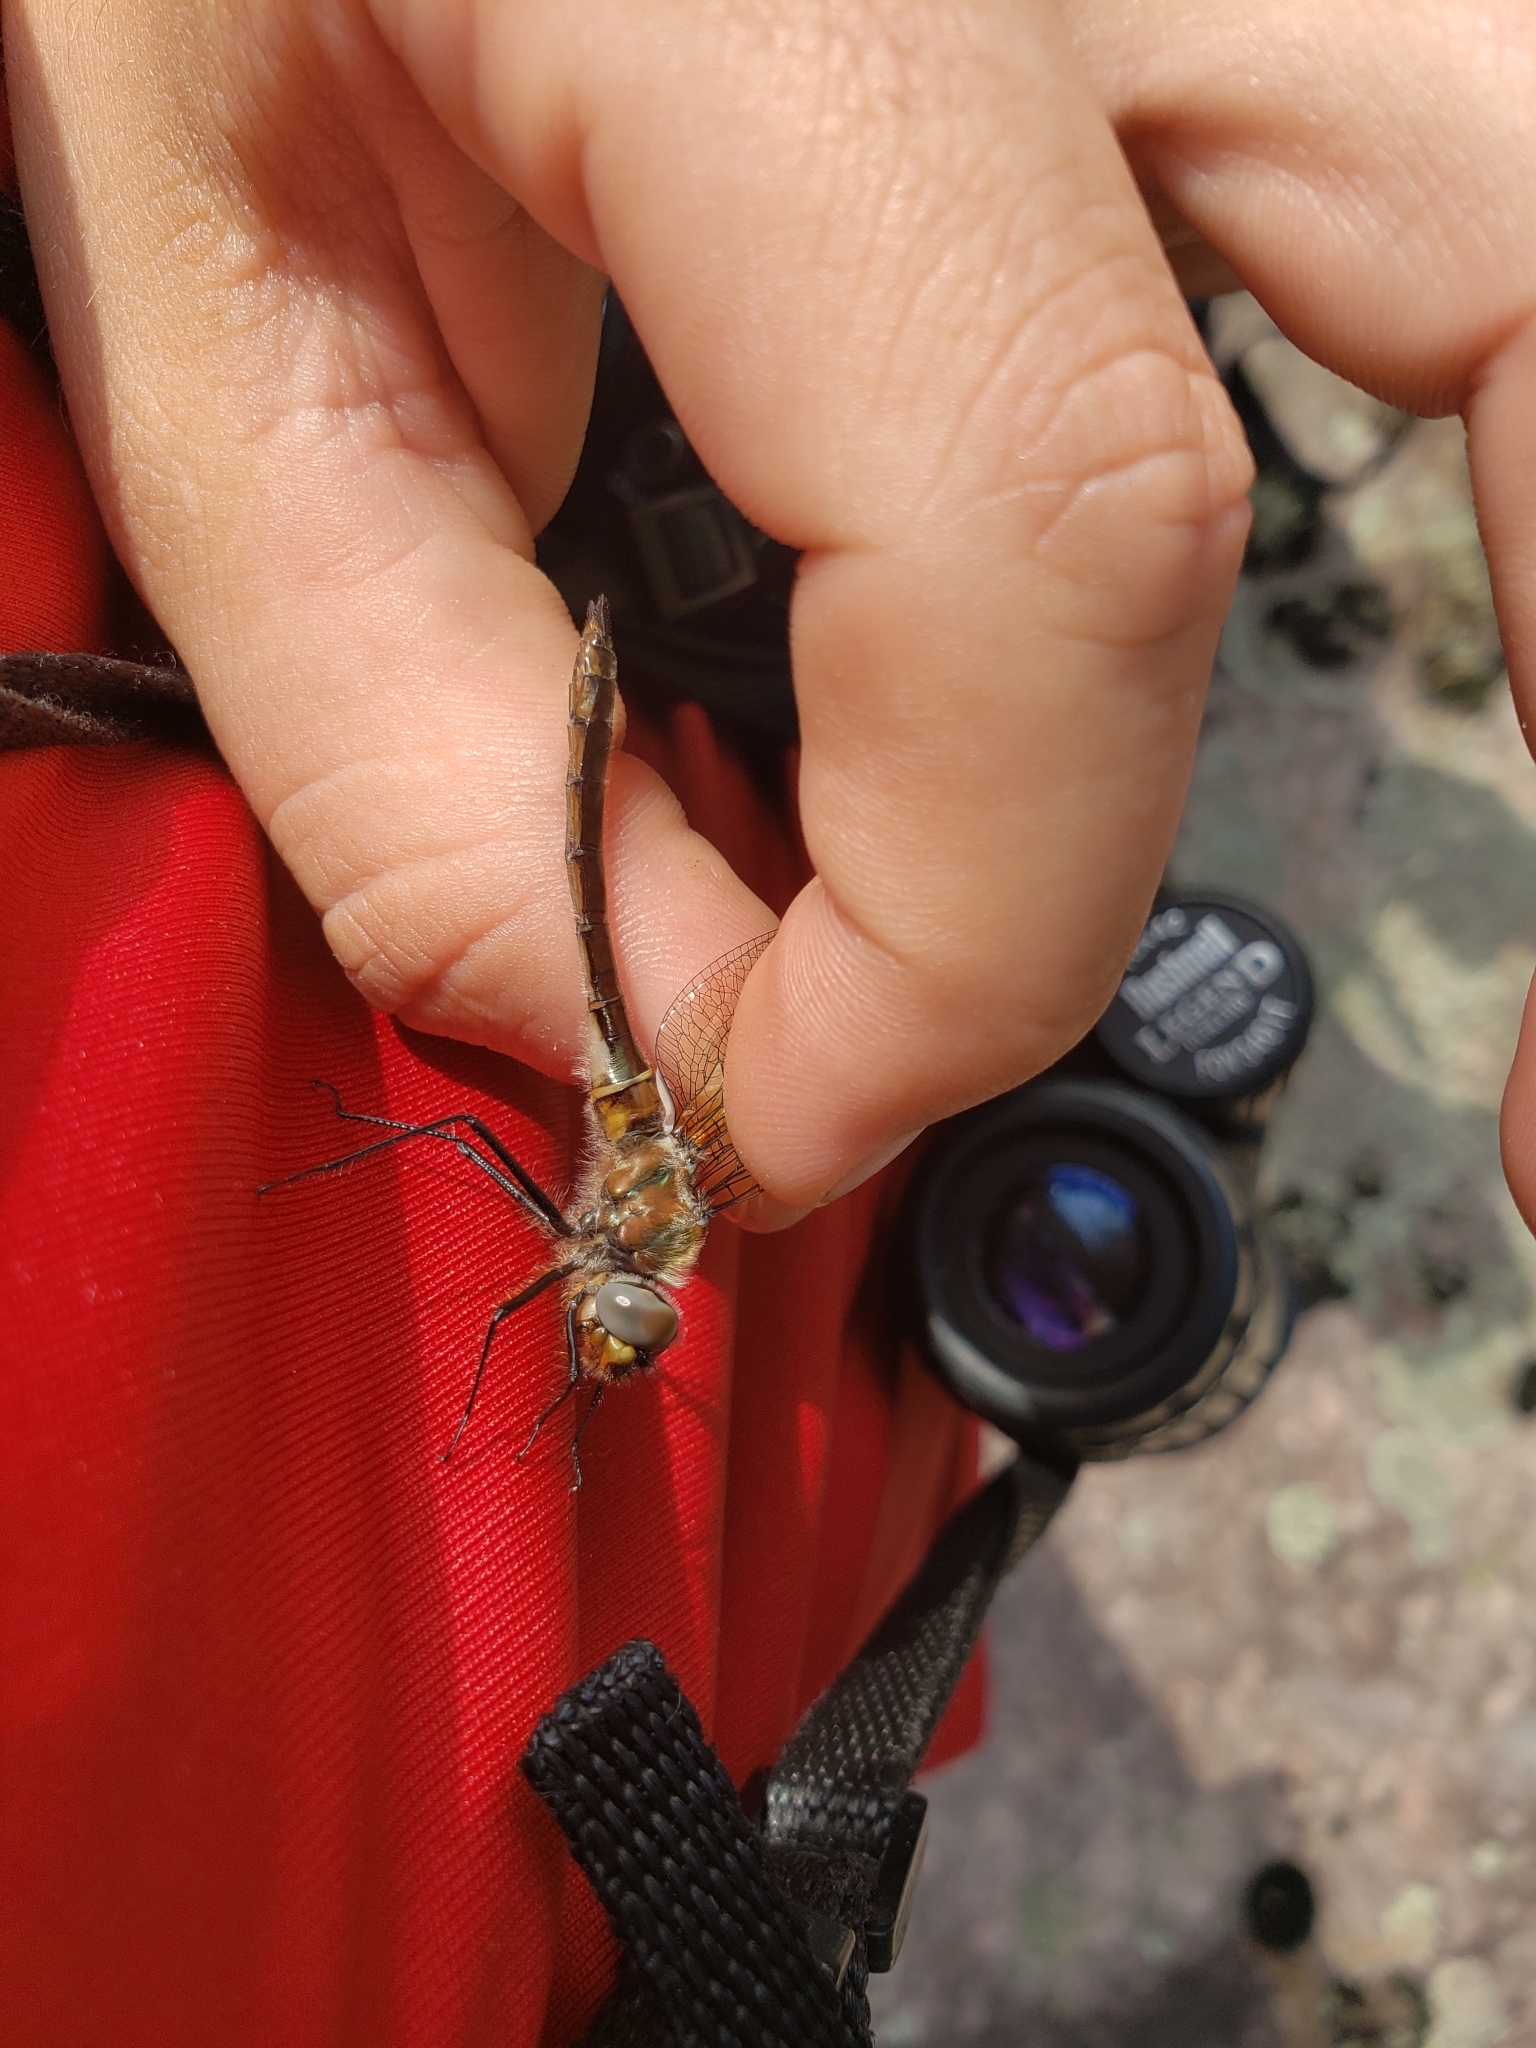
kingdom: Animalia
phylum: Arthropoda
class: Insecta
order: Odonata
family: Corduliidae
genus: Cordulia
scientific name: Cordulia shurtleffii
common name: American emerald
